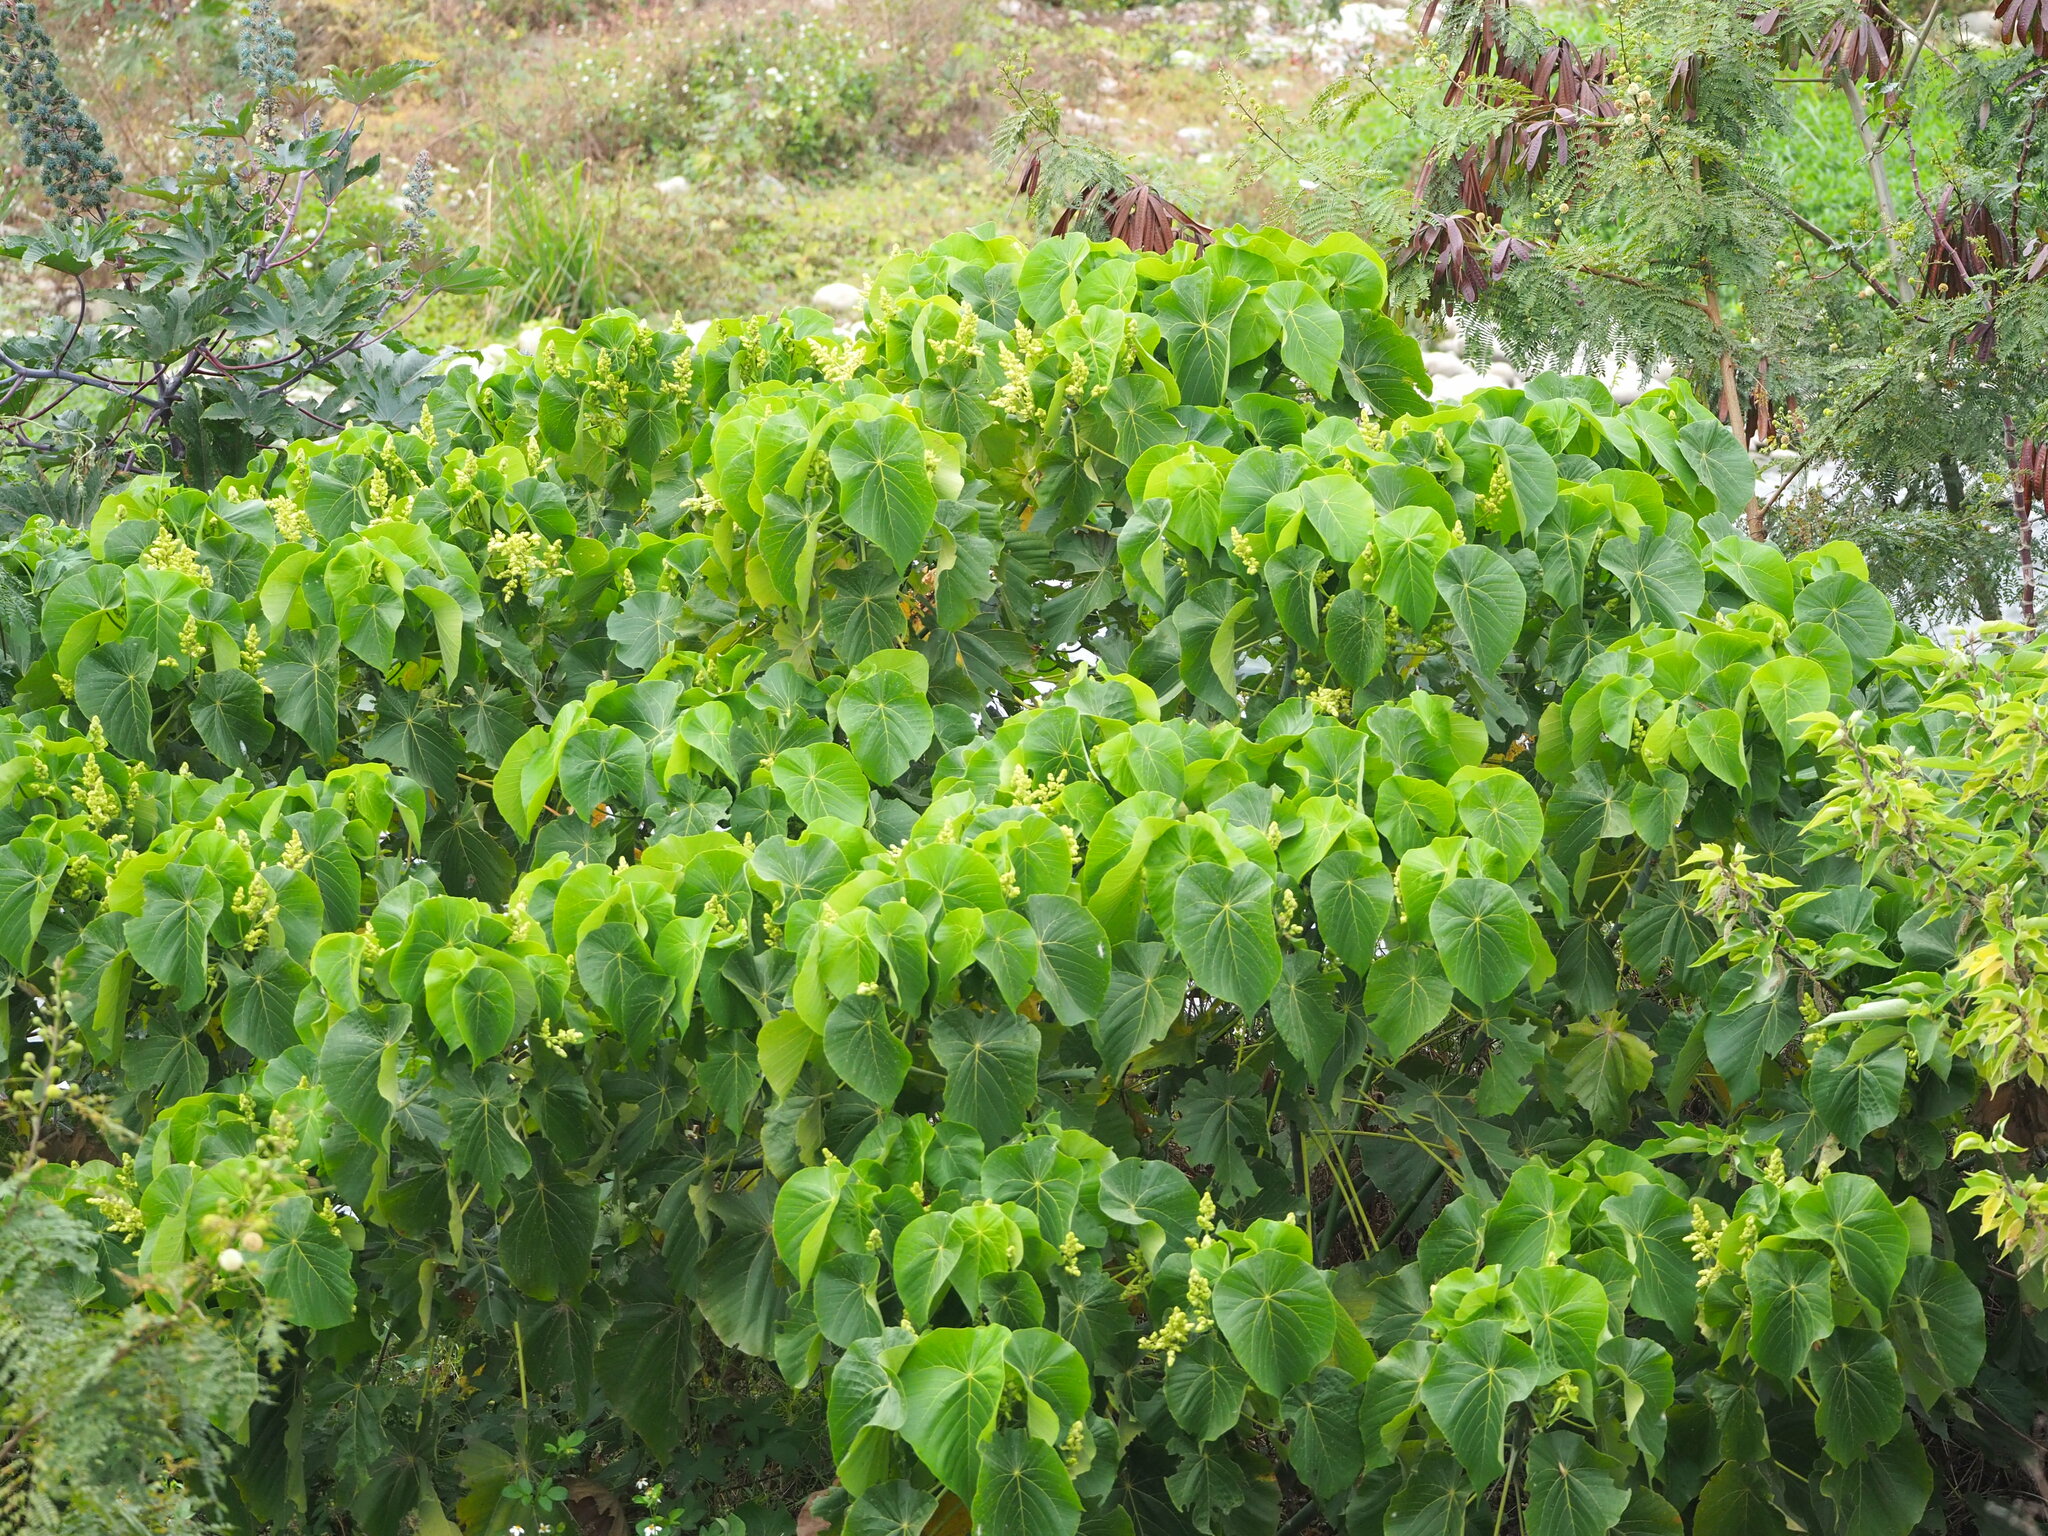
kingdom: Plantae
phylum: Tracheophyta
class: Magnoliopsida
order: Malpighiales
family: Euphorbiaceae
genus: Macaranga
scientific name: Macaranga tanarius
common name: Parasol leaf tree
